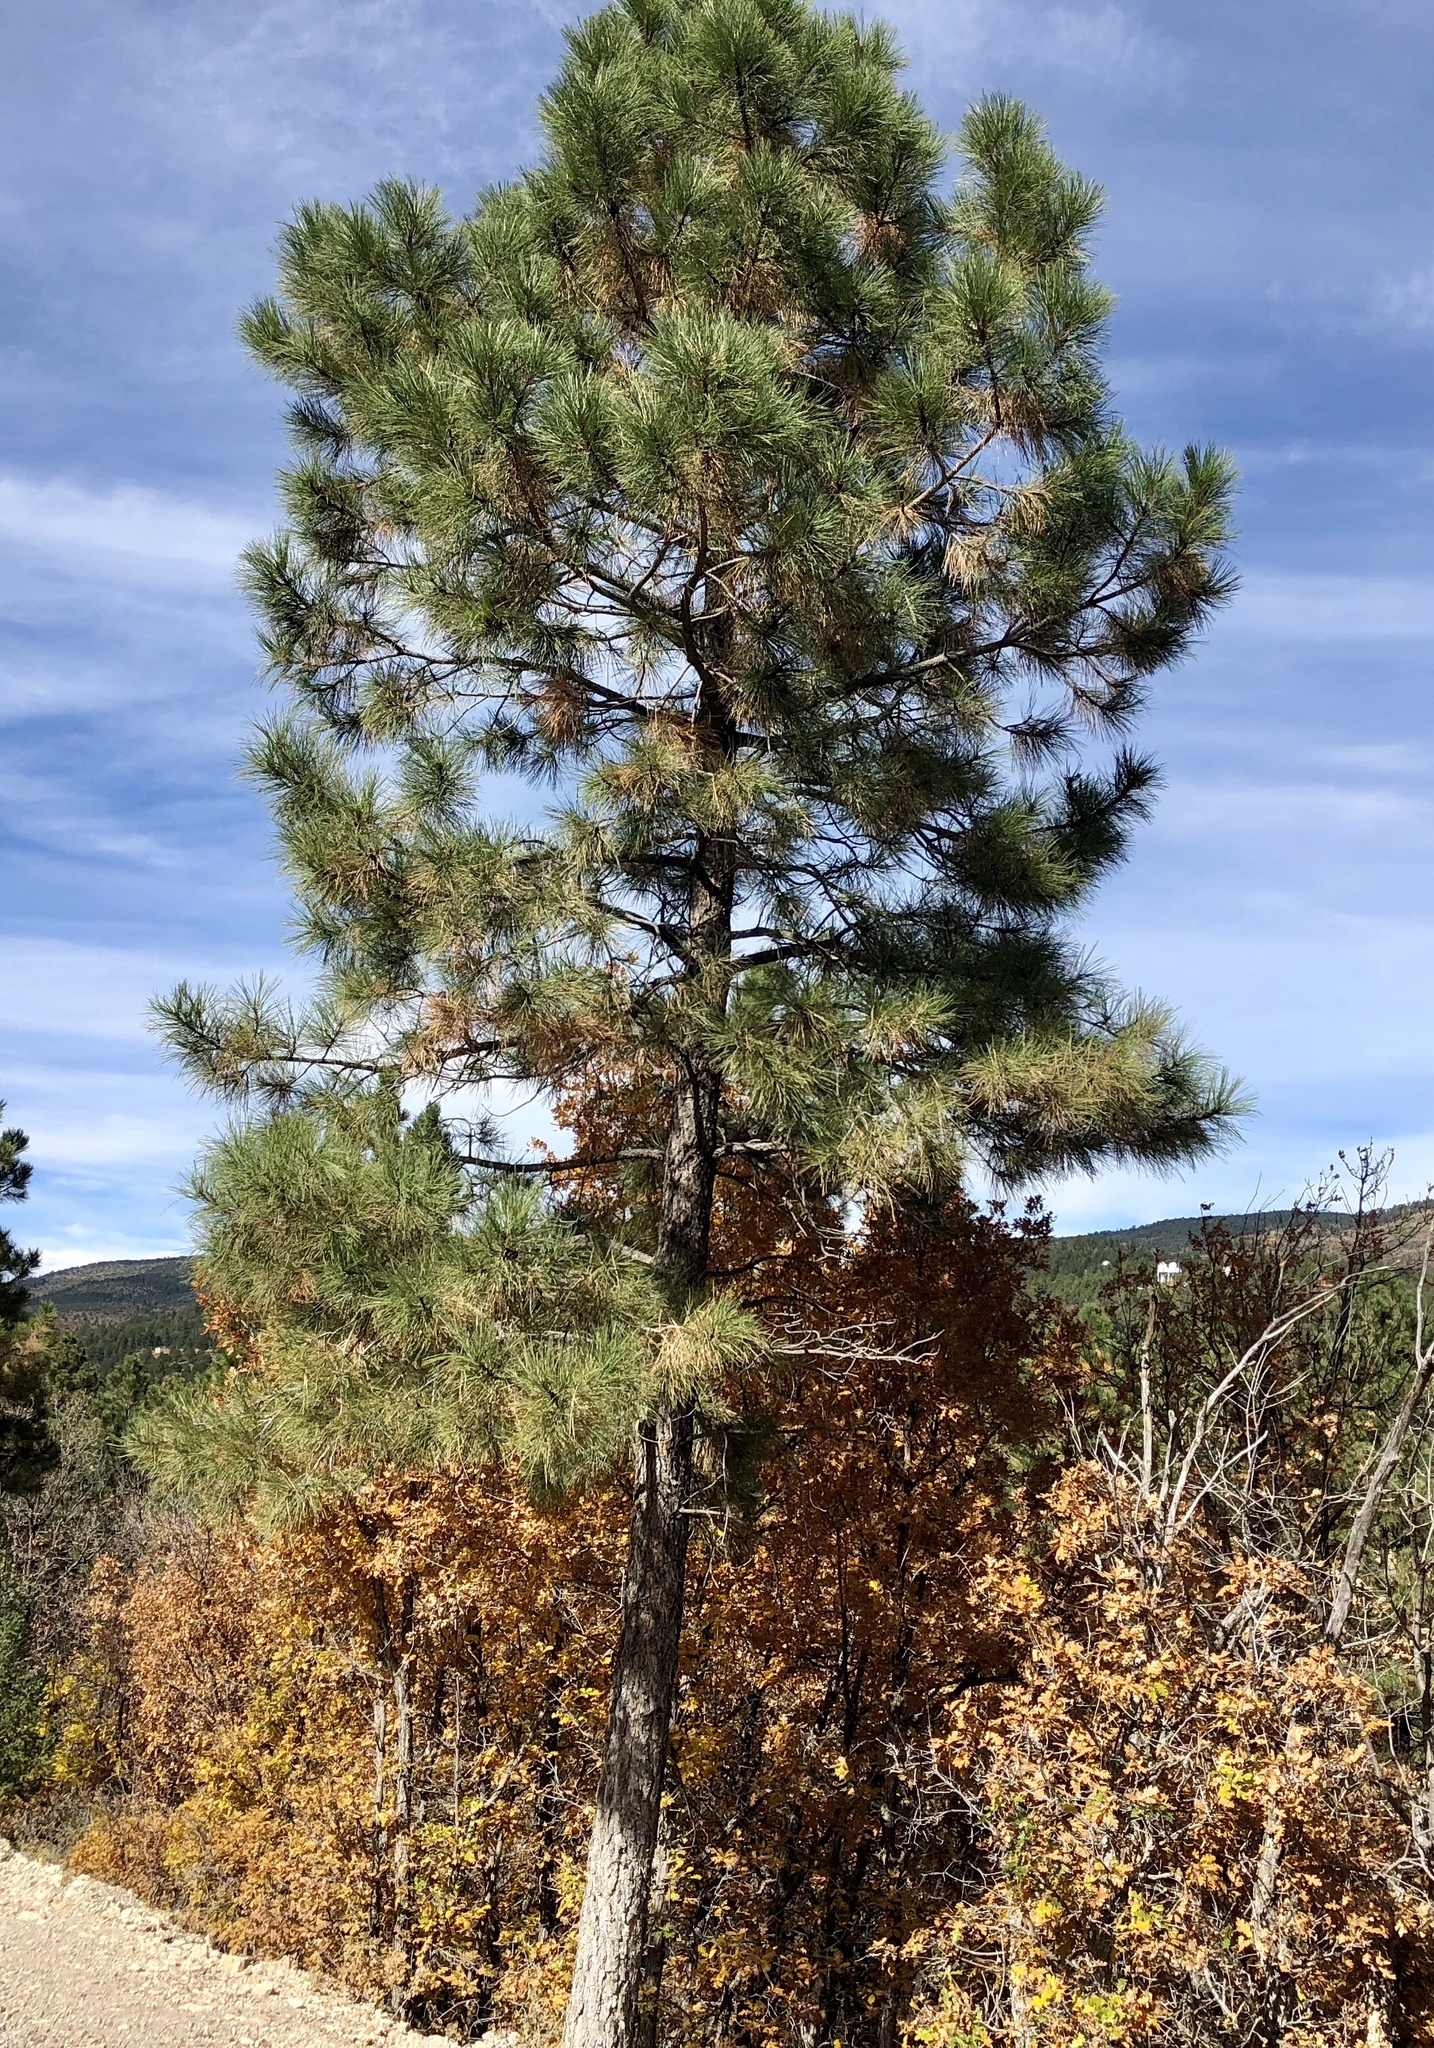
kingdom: Plantae
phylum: Tracheophyta
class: Pinopsida
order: Pinales
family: Pinaceae
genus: Pinus
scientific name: Pinus ponderosa
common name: Western yellow-pine
